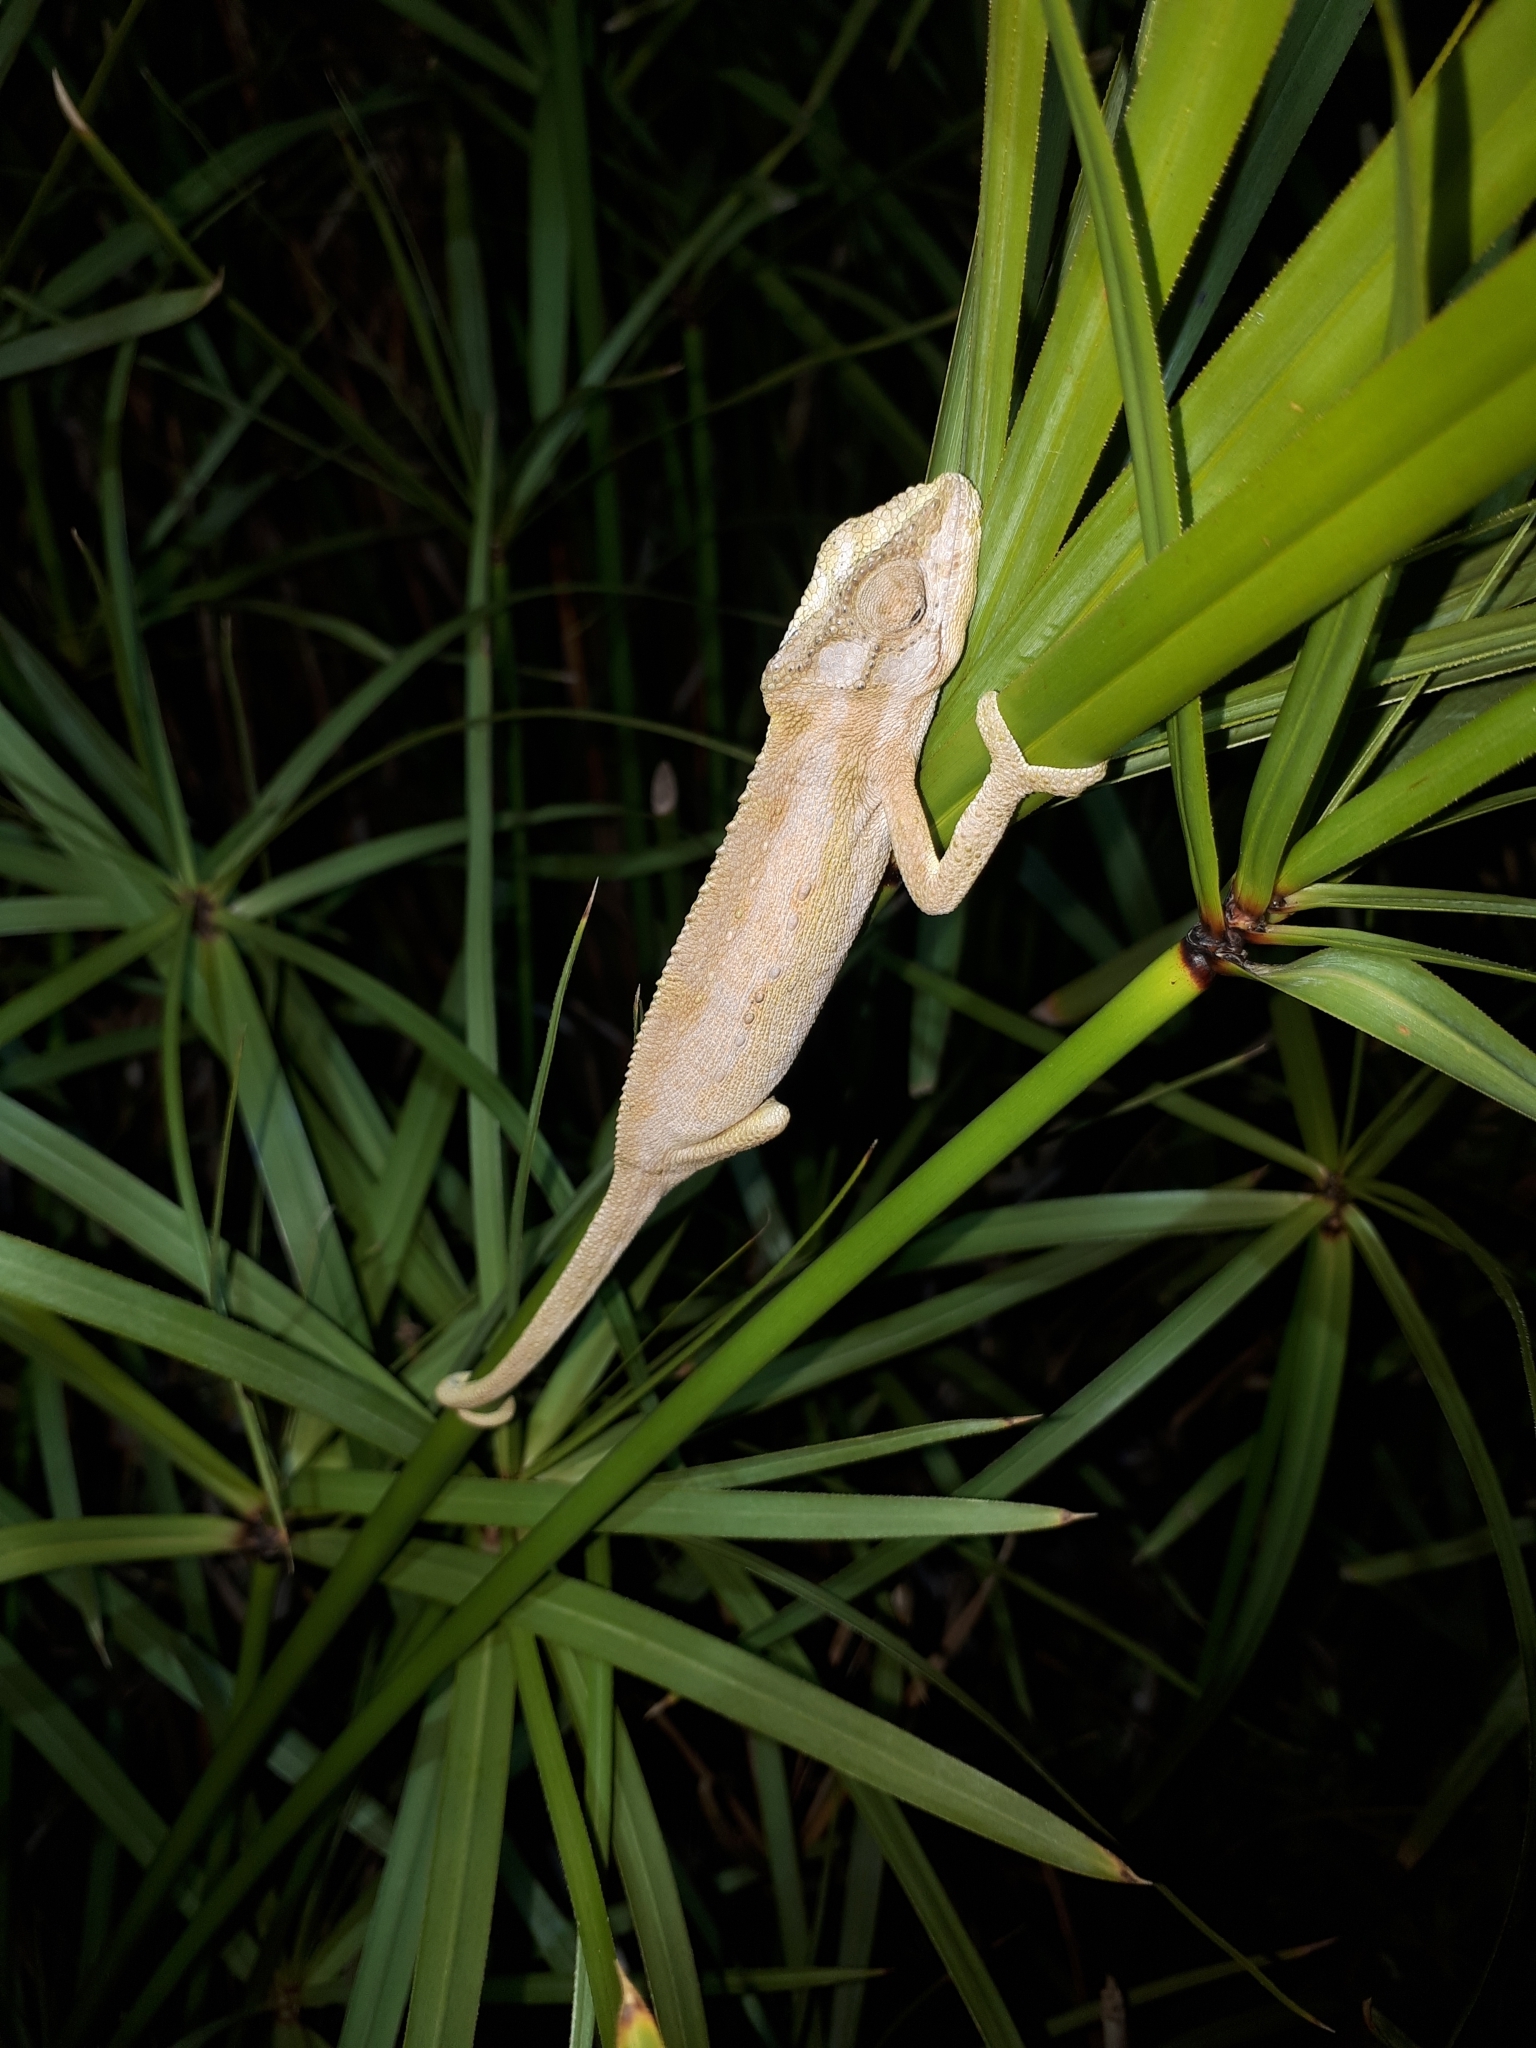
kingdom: Animalia
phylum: Chordata
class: Squamata
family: Chamaeleonidae
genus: Bradypodion
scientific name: Bradypodion pumilum
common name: Cape dwarf chameleon
